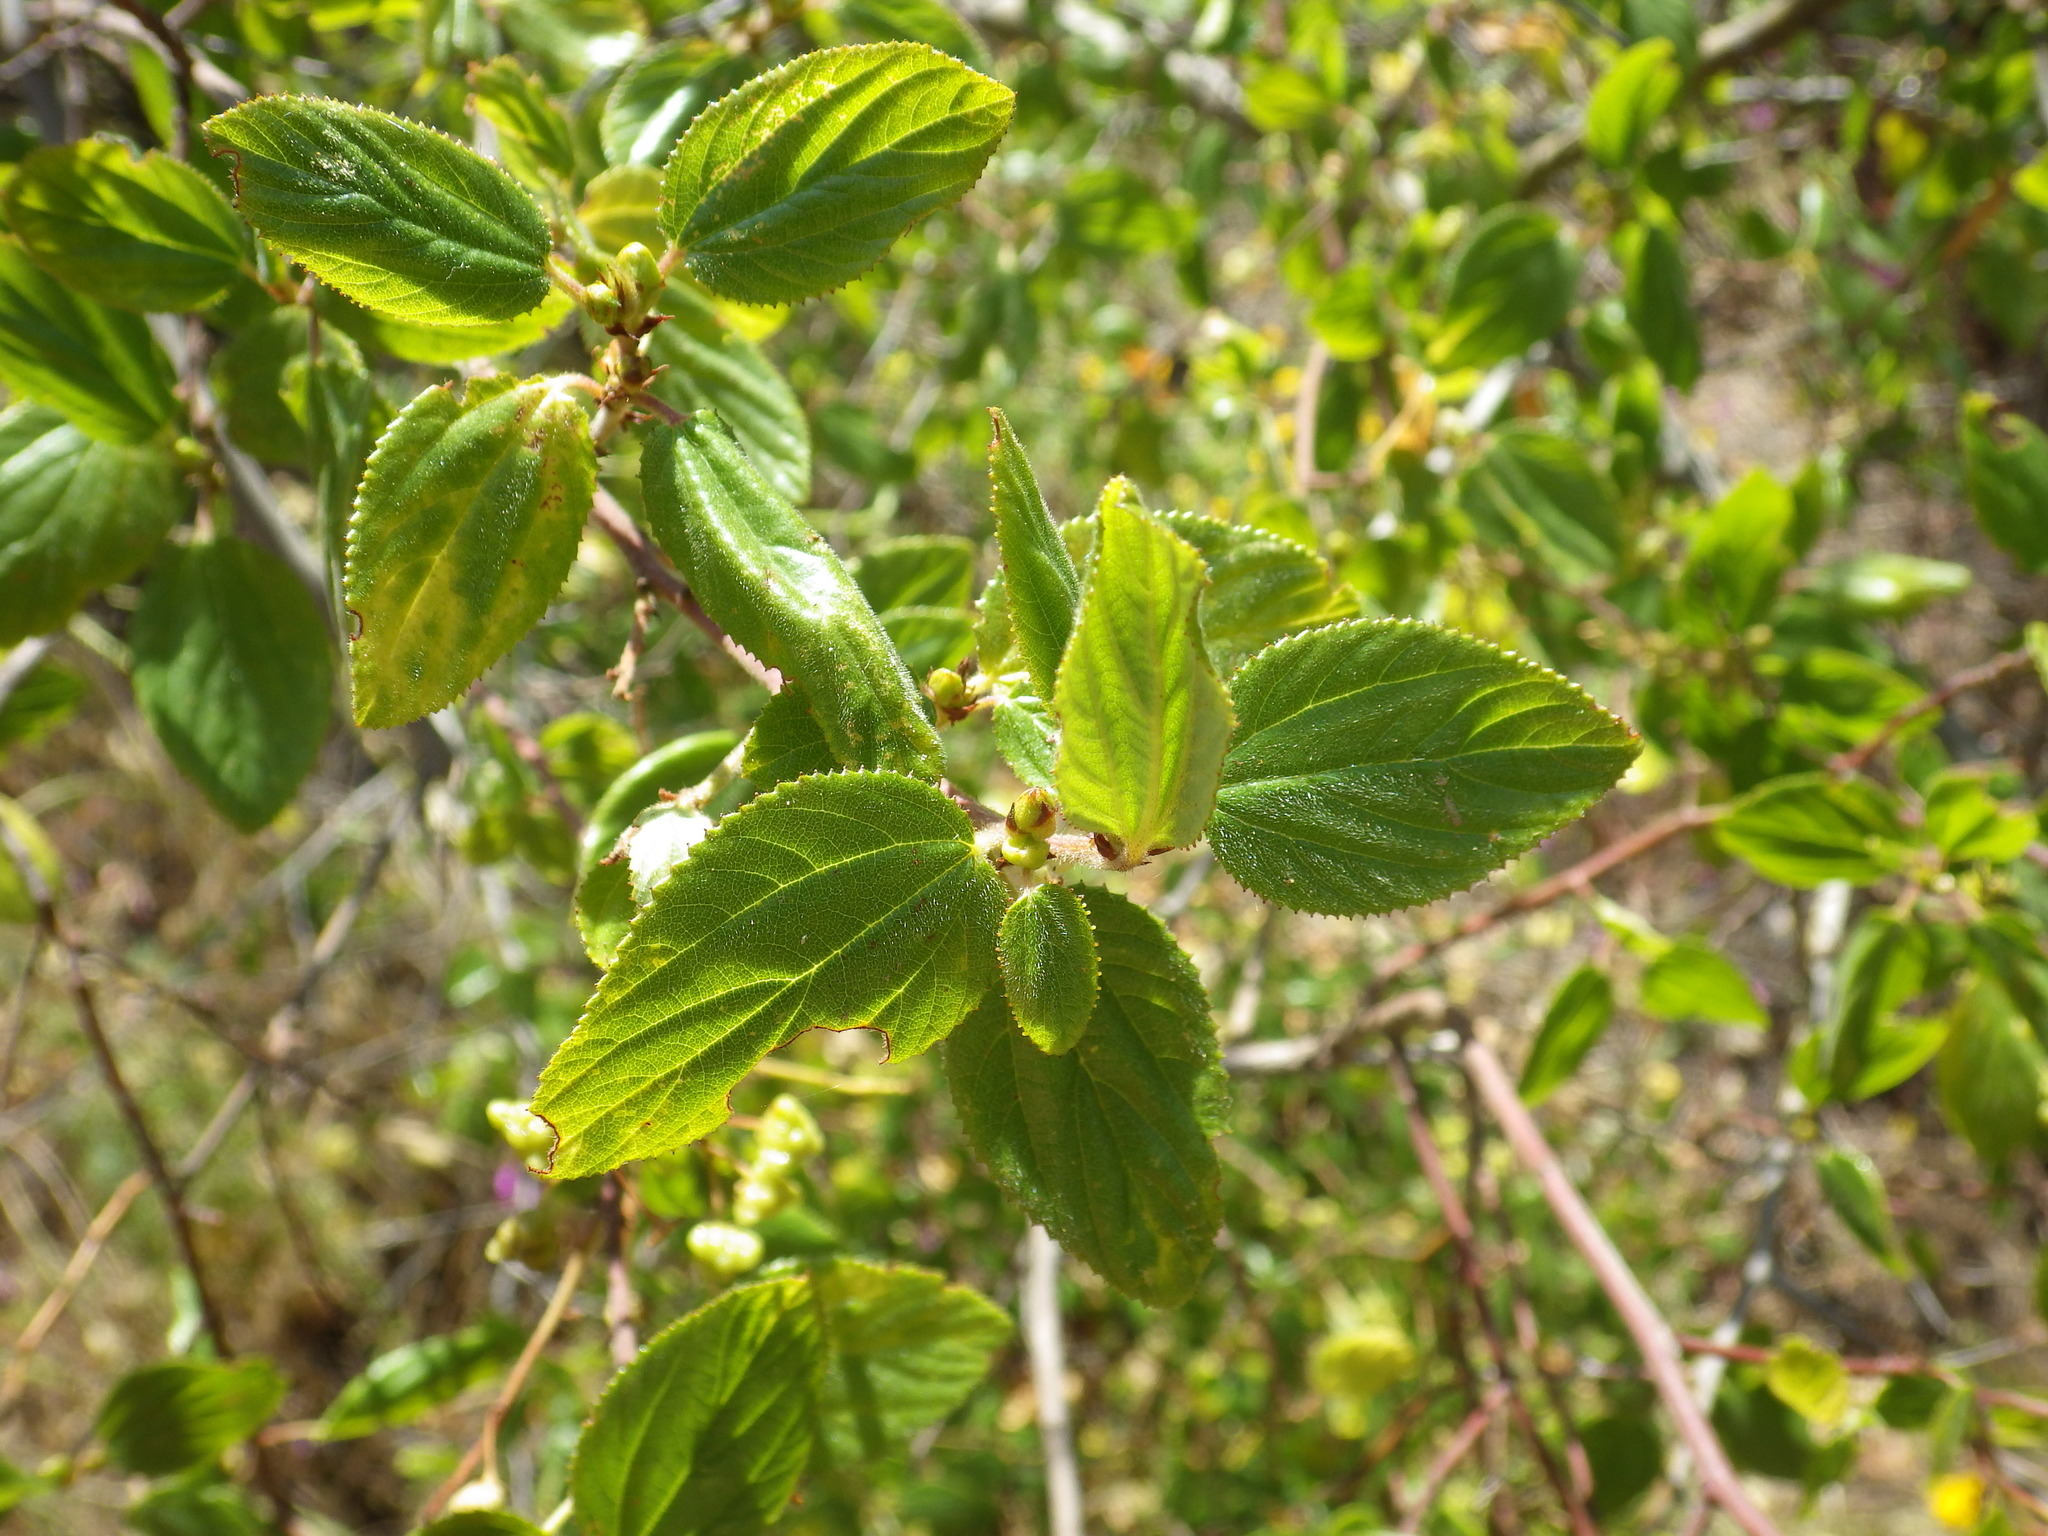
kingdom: Plantae
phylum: Tracheophyta
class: Magnoliopsida
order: Rosales
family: Rhamnaceae
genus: Ceanothus
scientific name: Ceanothus oliganthus
